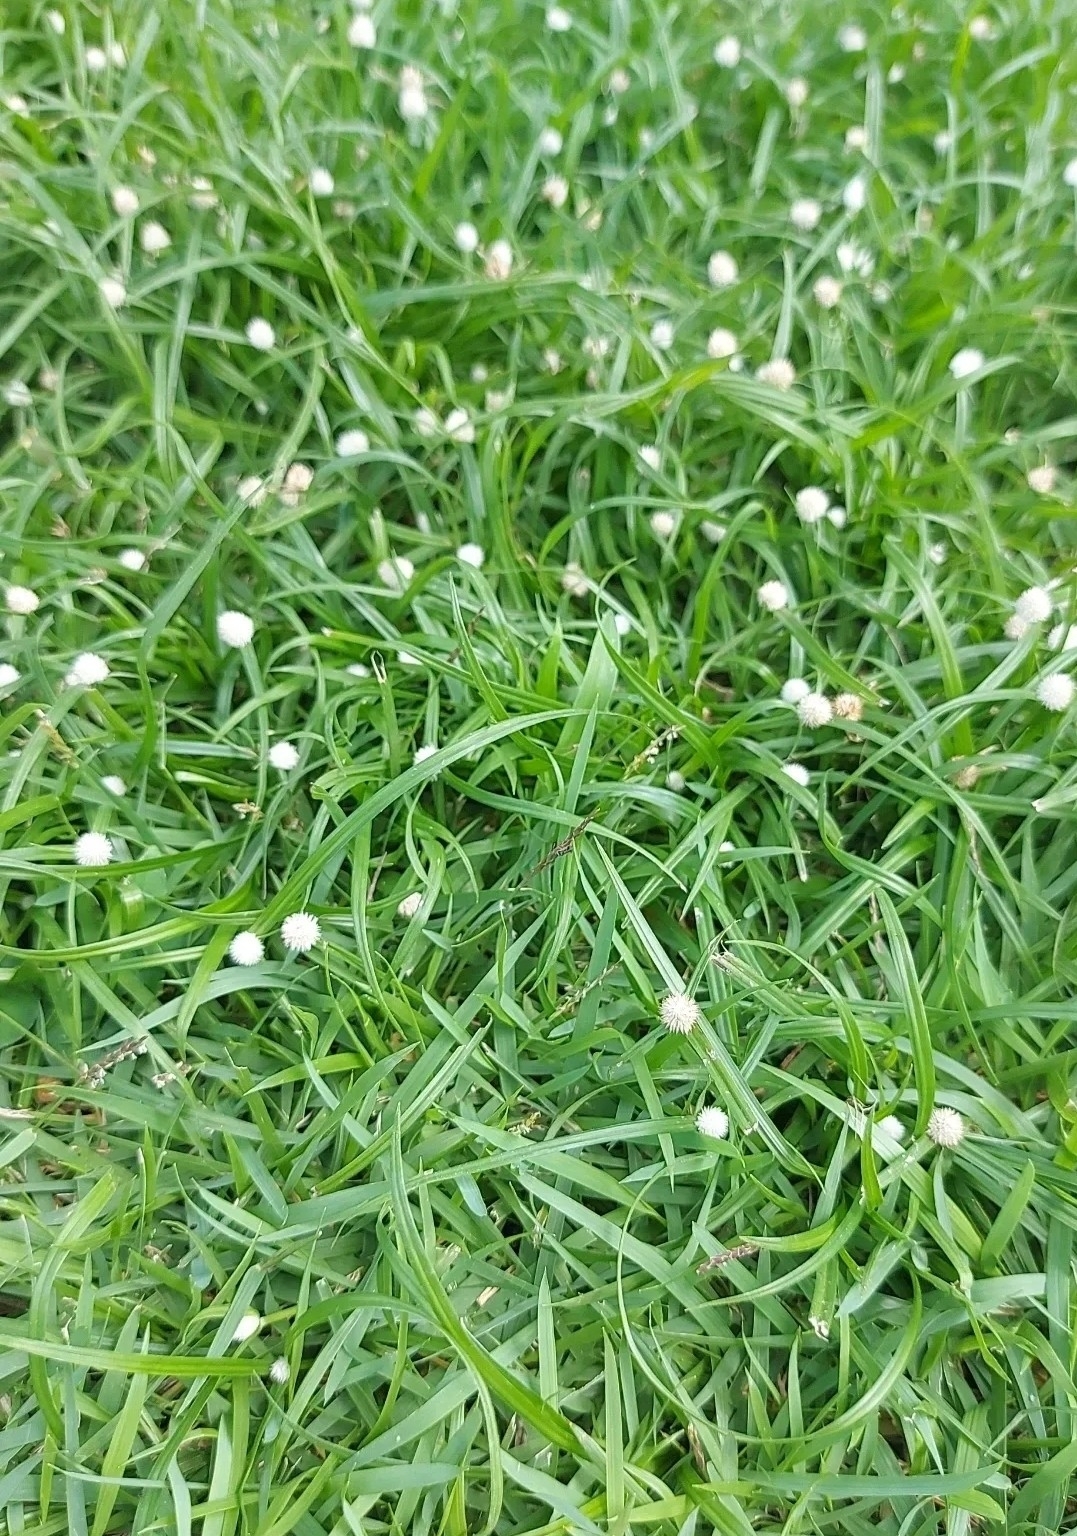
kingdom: Plantae
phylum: Tracheophyta
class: Liliopsida
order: Poales
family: Cyperaceae
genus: Cyperus
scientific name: Cyperus mindorensis
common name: Flatsedge
